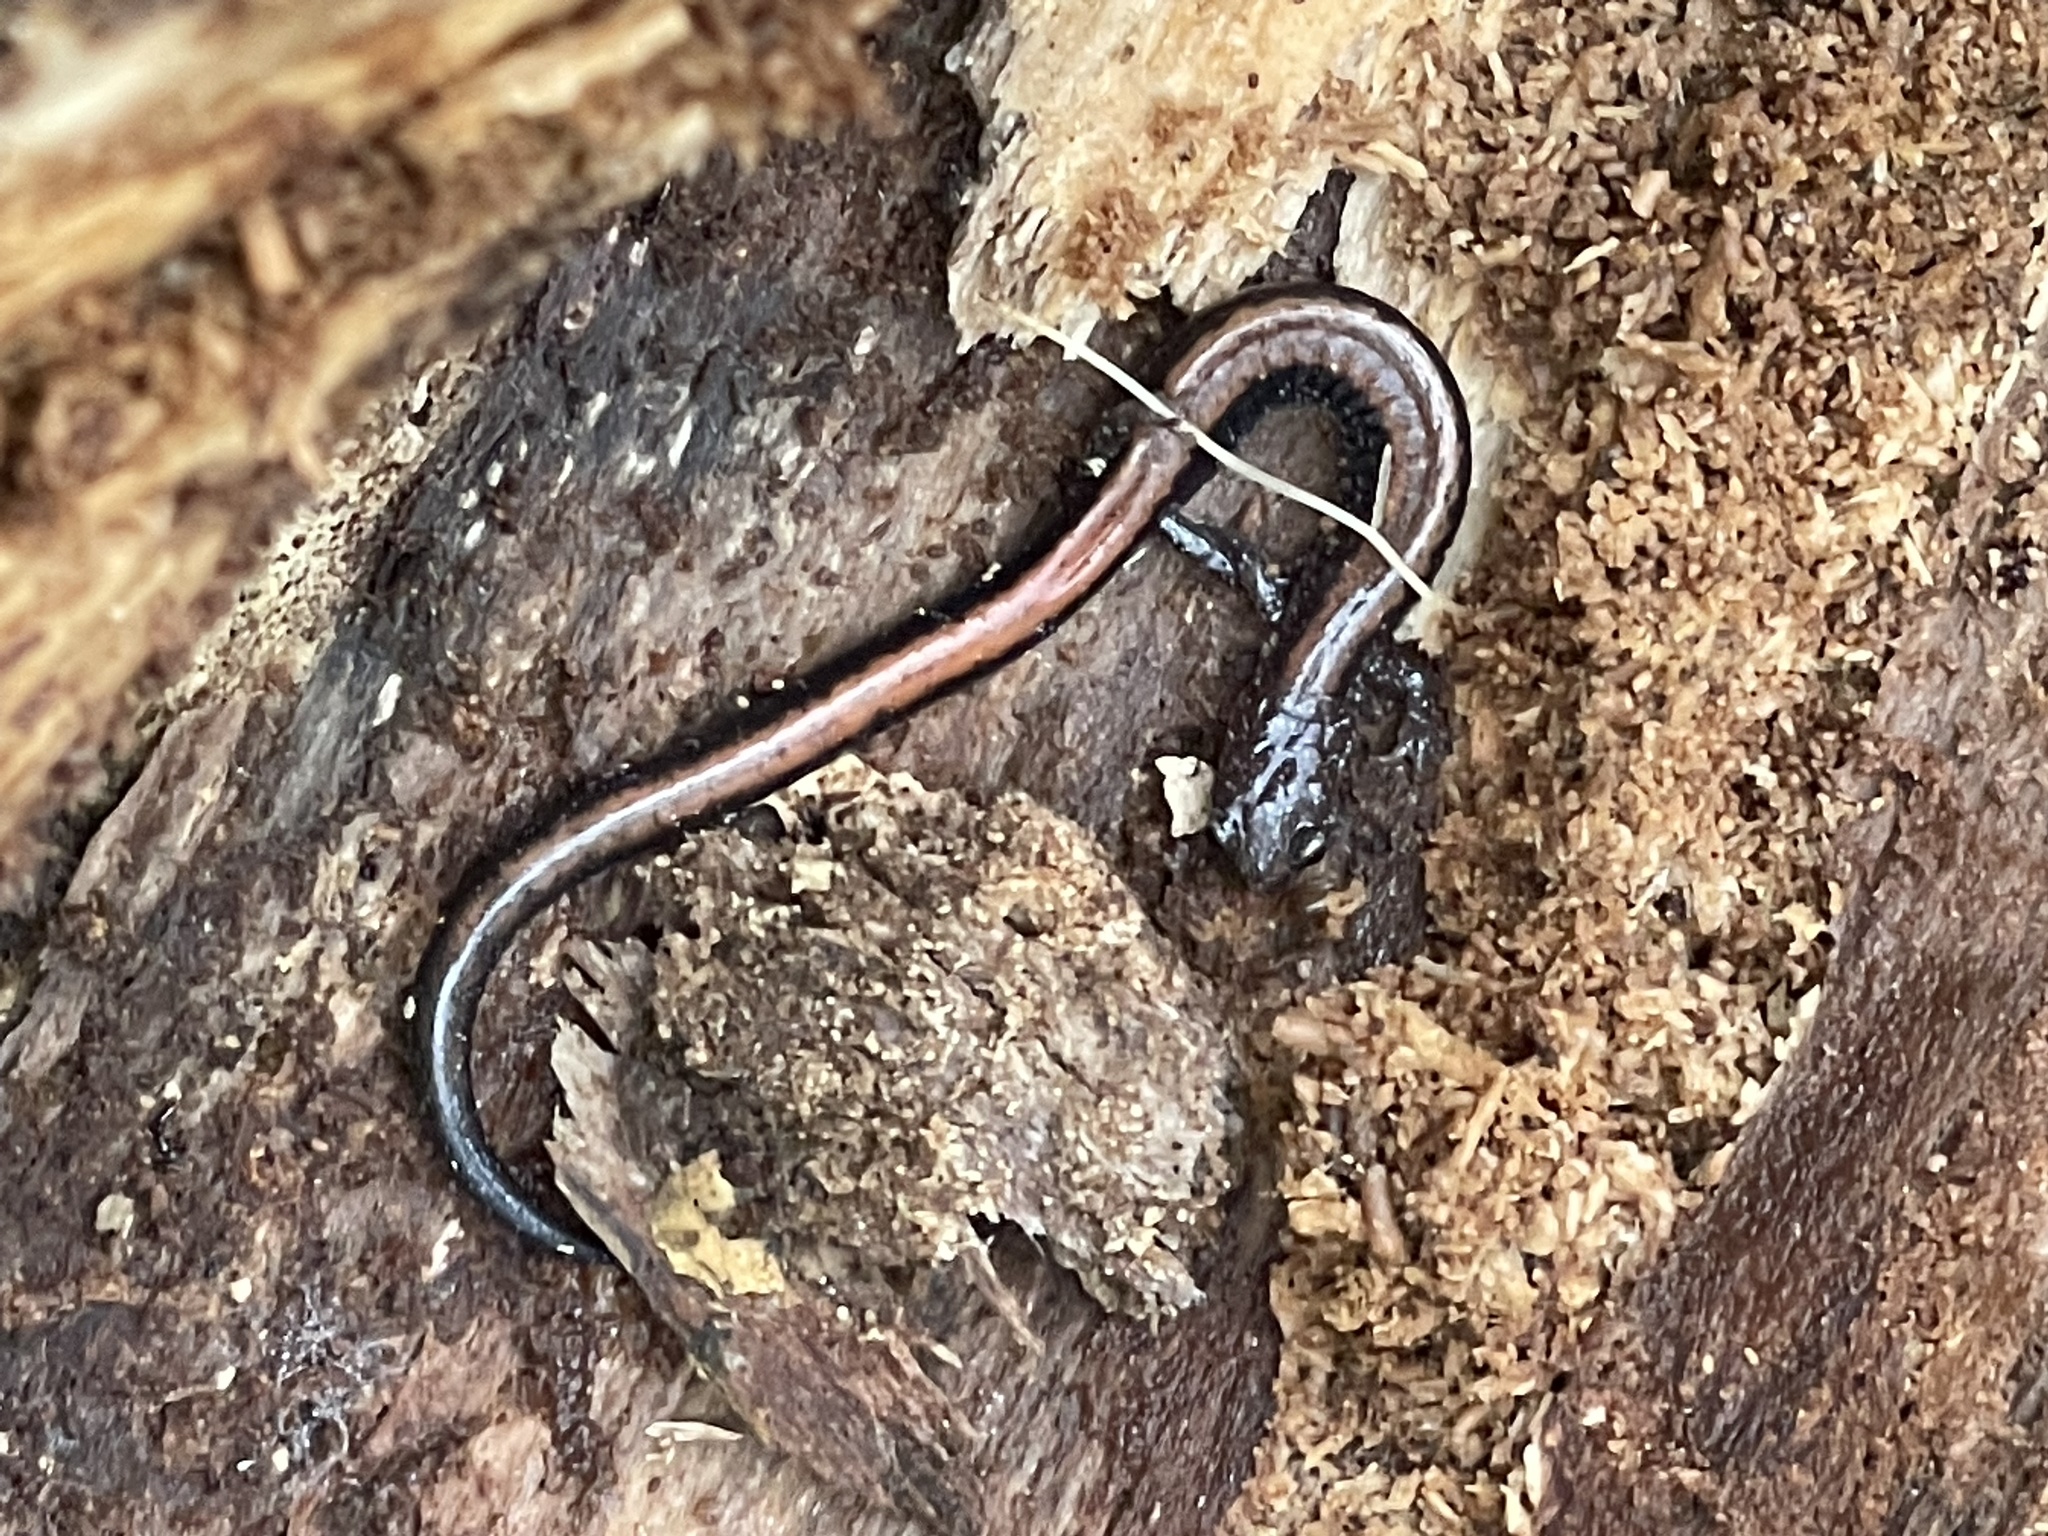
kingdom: Animalia
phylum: Chordata
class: Amphibia
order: Caudata
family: Plethodontidae
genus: Plethodon
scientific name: Plethodon cinereus
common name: Redback salamander
